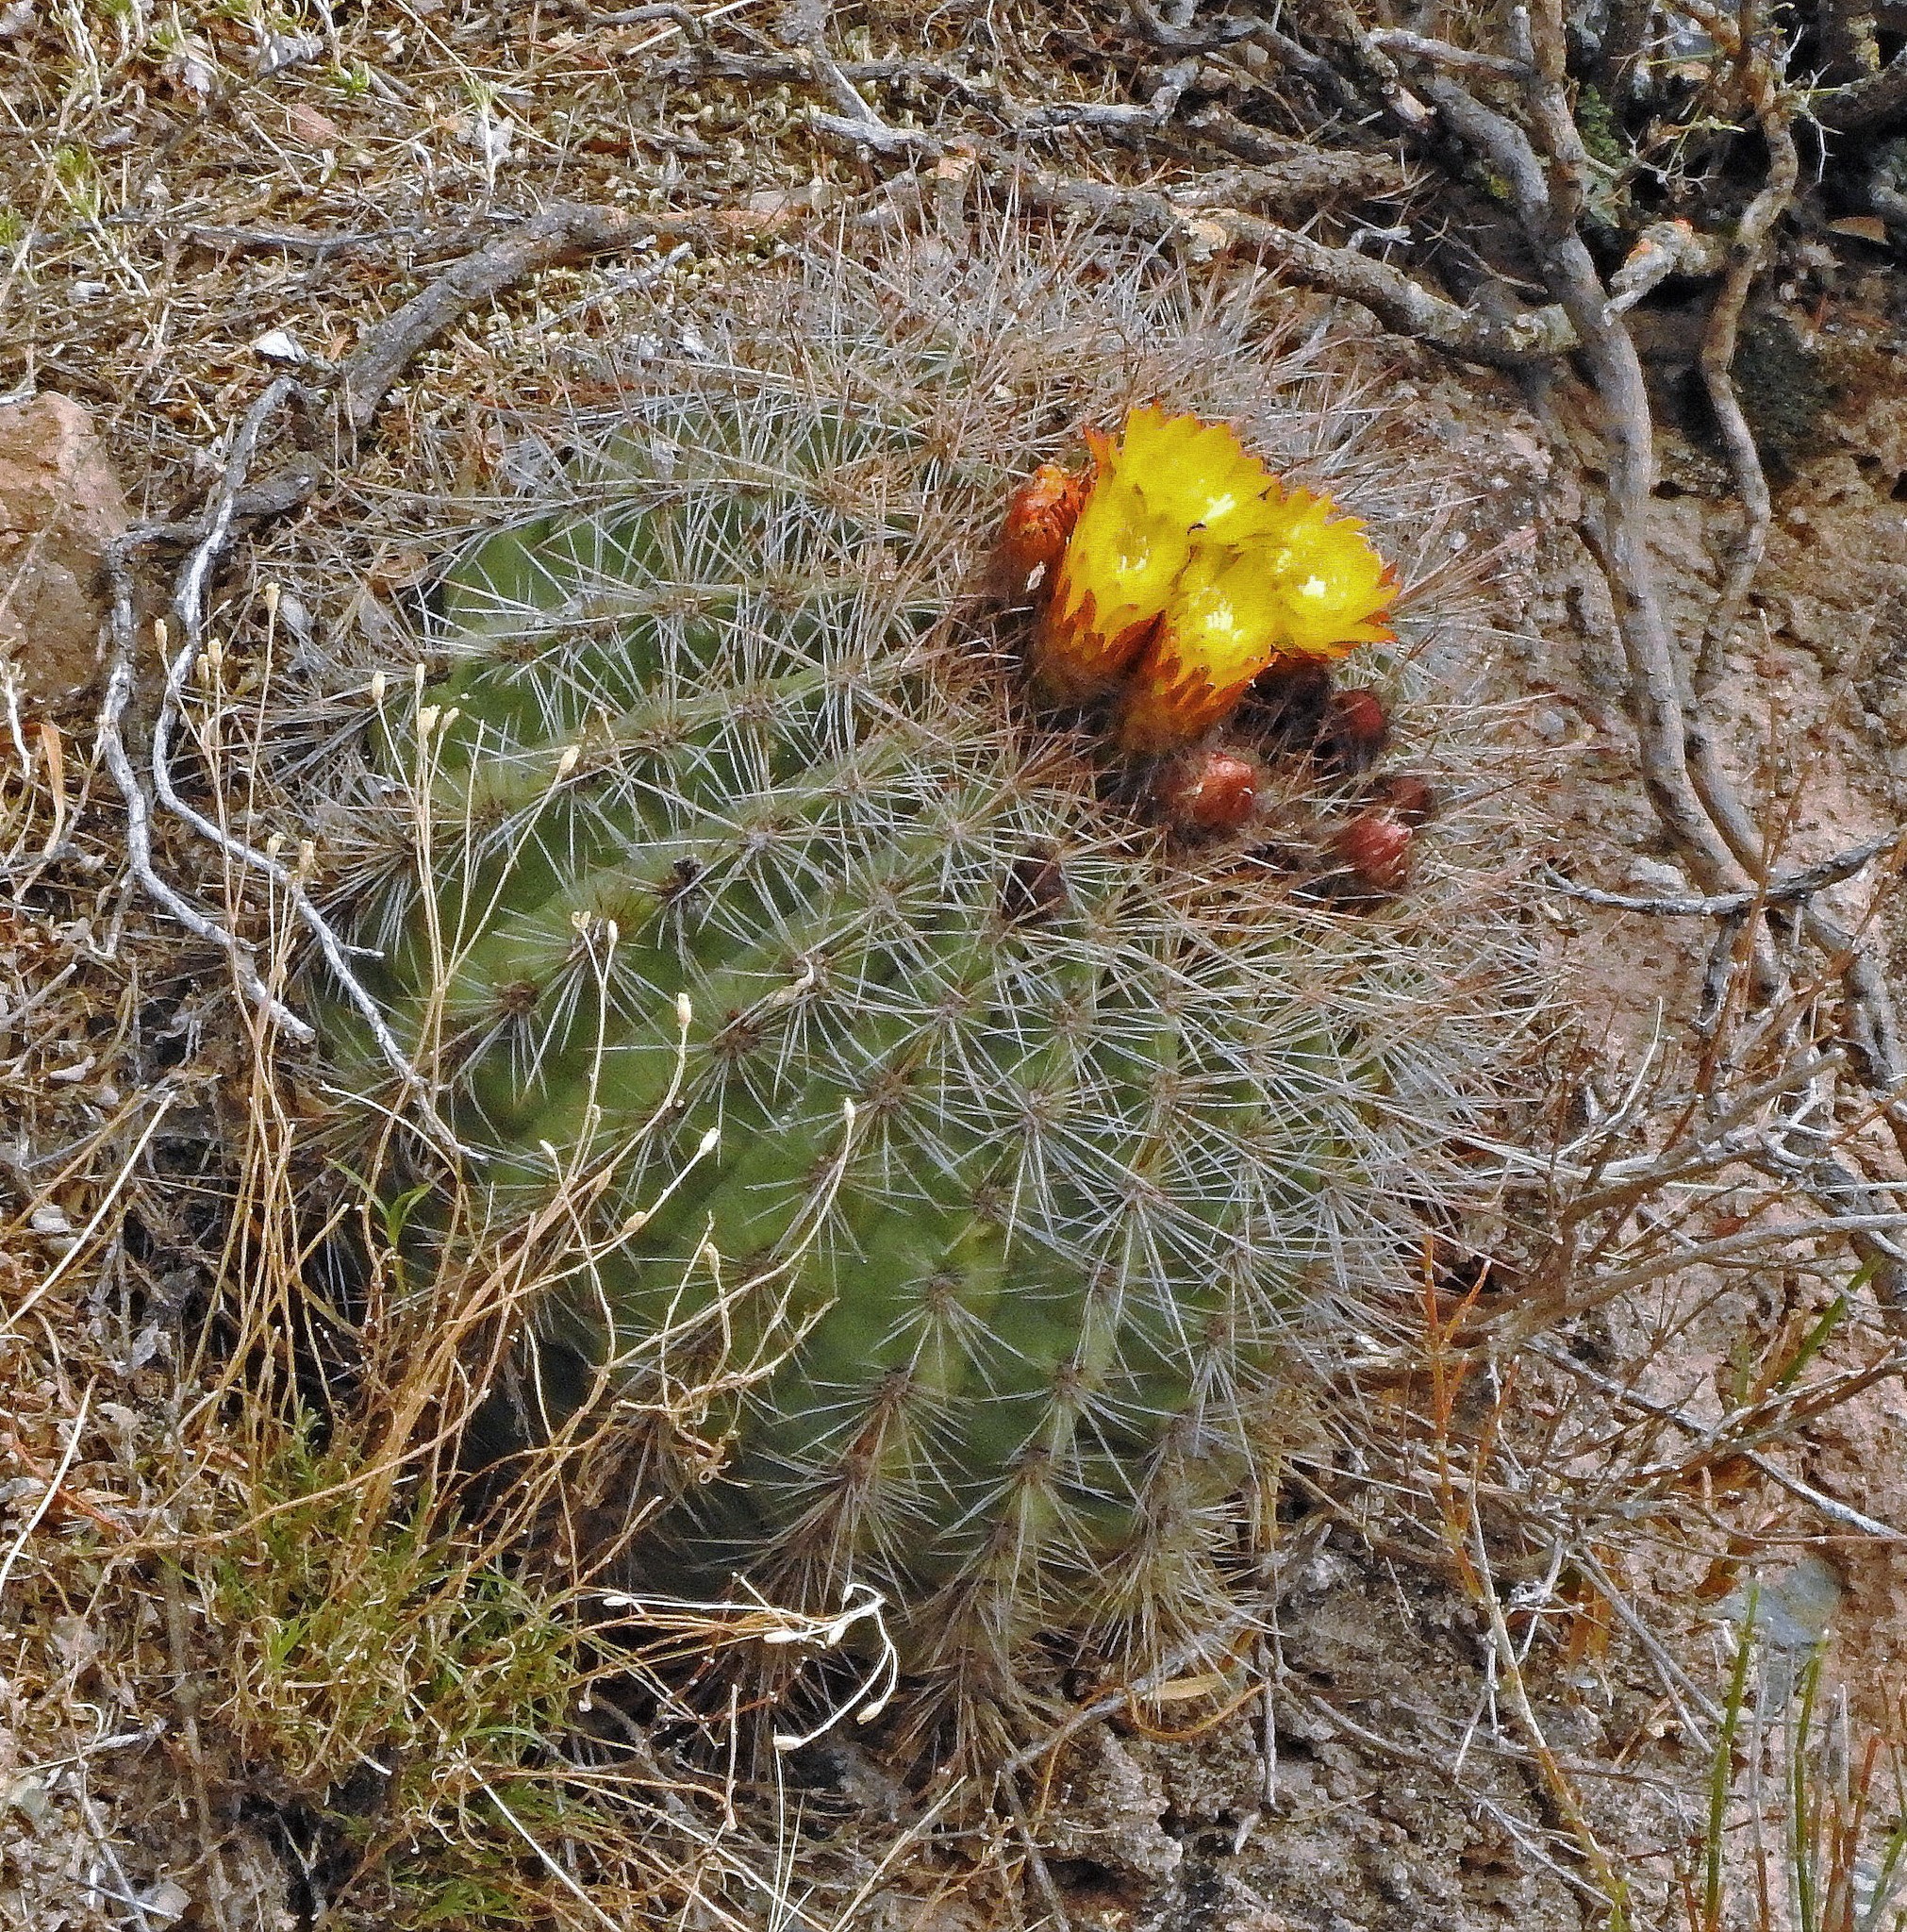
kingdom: Plantae
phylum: Tracheophyta
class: Magnoliopsida
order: Caryophyllales
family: Cactaceae
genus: Soehrensia
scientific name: Soehrensia formosa
